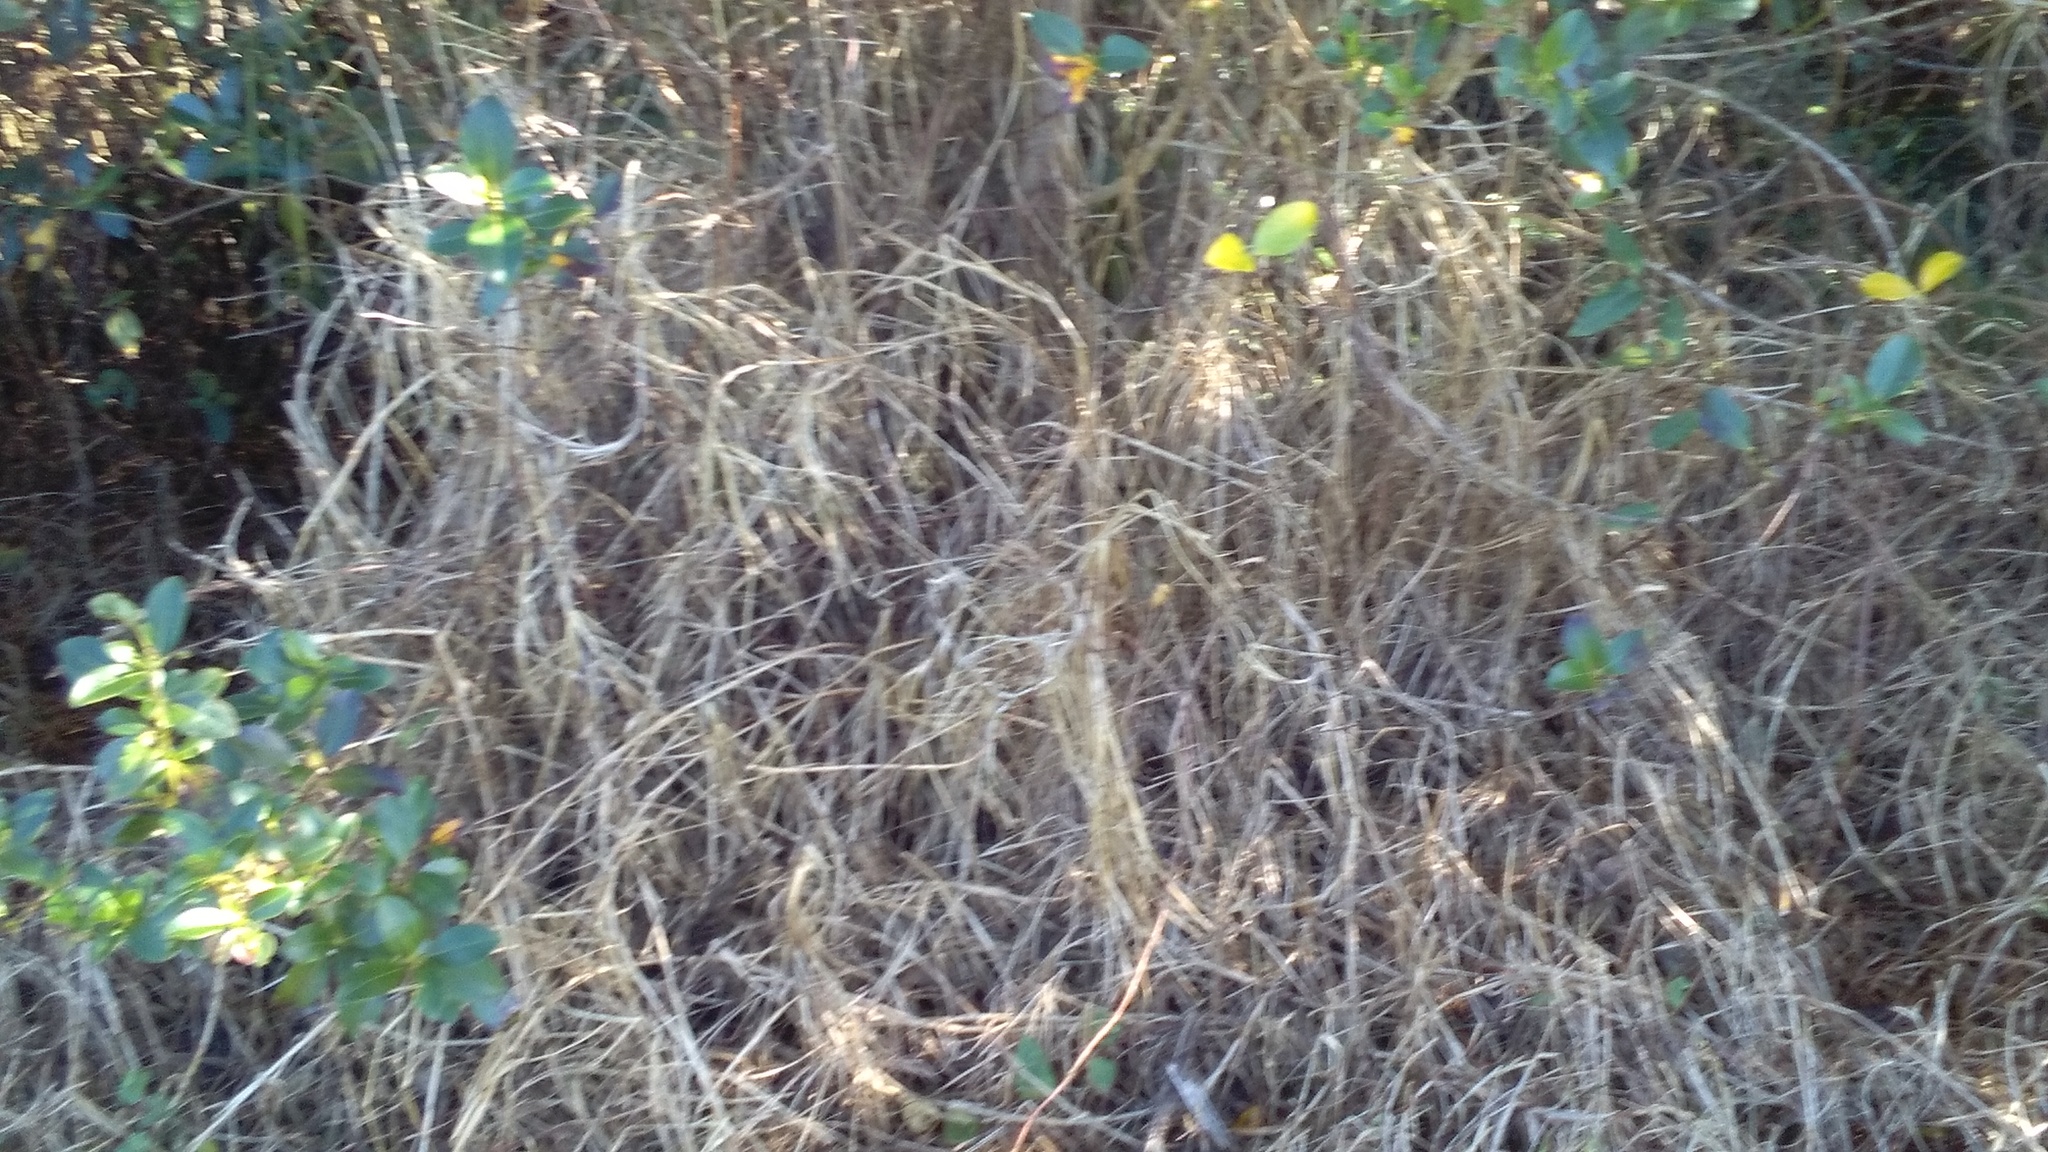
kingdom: Plantae
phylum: Tracheophyta
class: Liliopsida
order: Poales
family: Poaceae
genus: Cenchrus
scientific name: Cenchrus clandestinus
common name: Kikuyugrass
